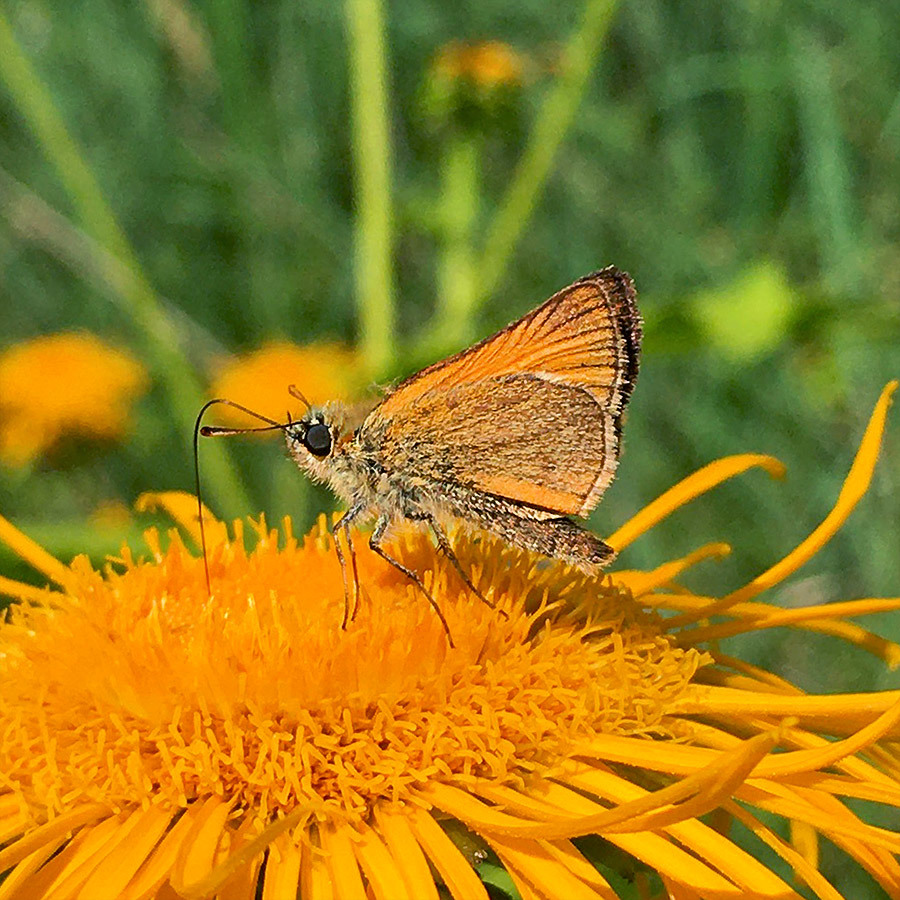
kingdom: Animalia
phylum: Arthropoda
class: Insecta
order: Lepidoptera
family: Hesperiidae
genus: Thymelicus
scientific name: Thymelicus sylvestris
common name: Small skipper
